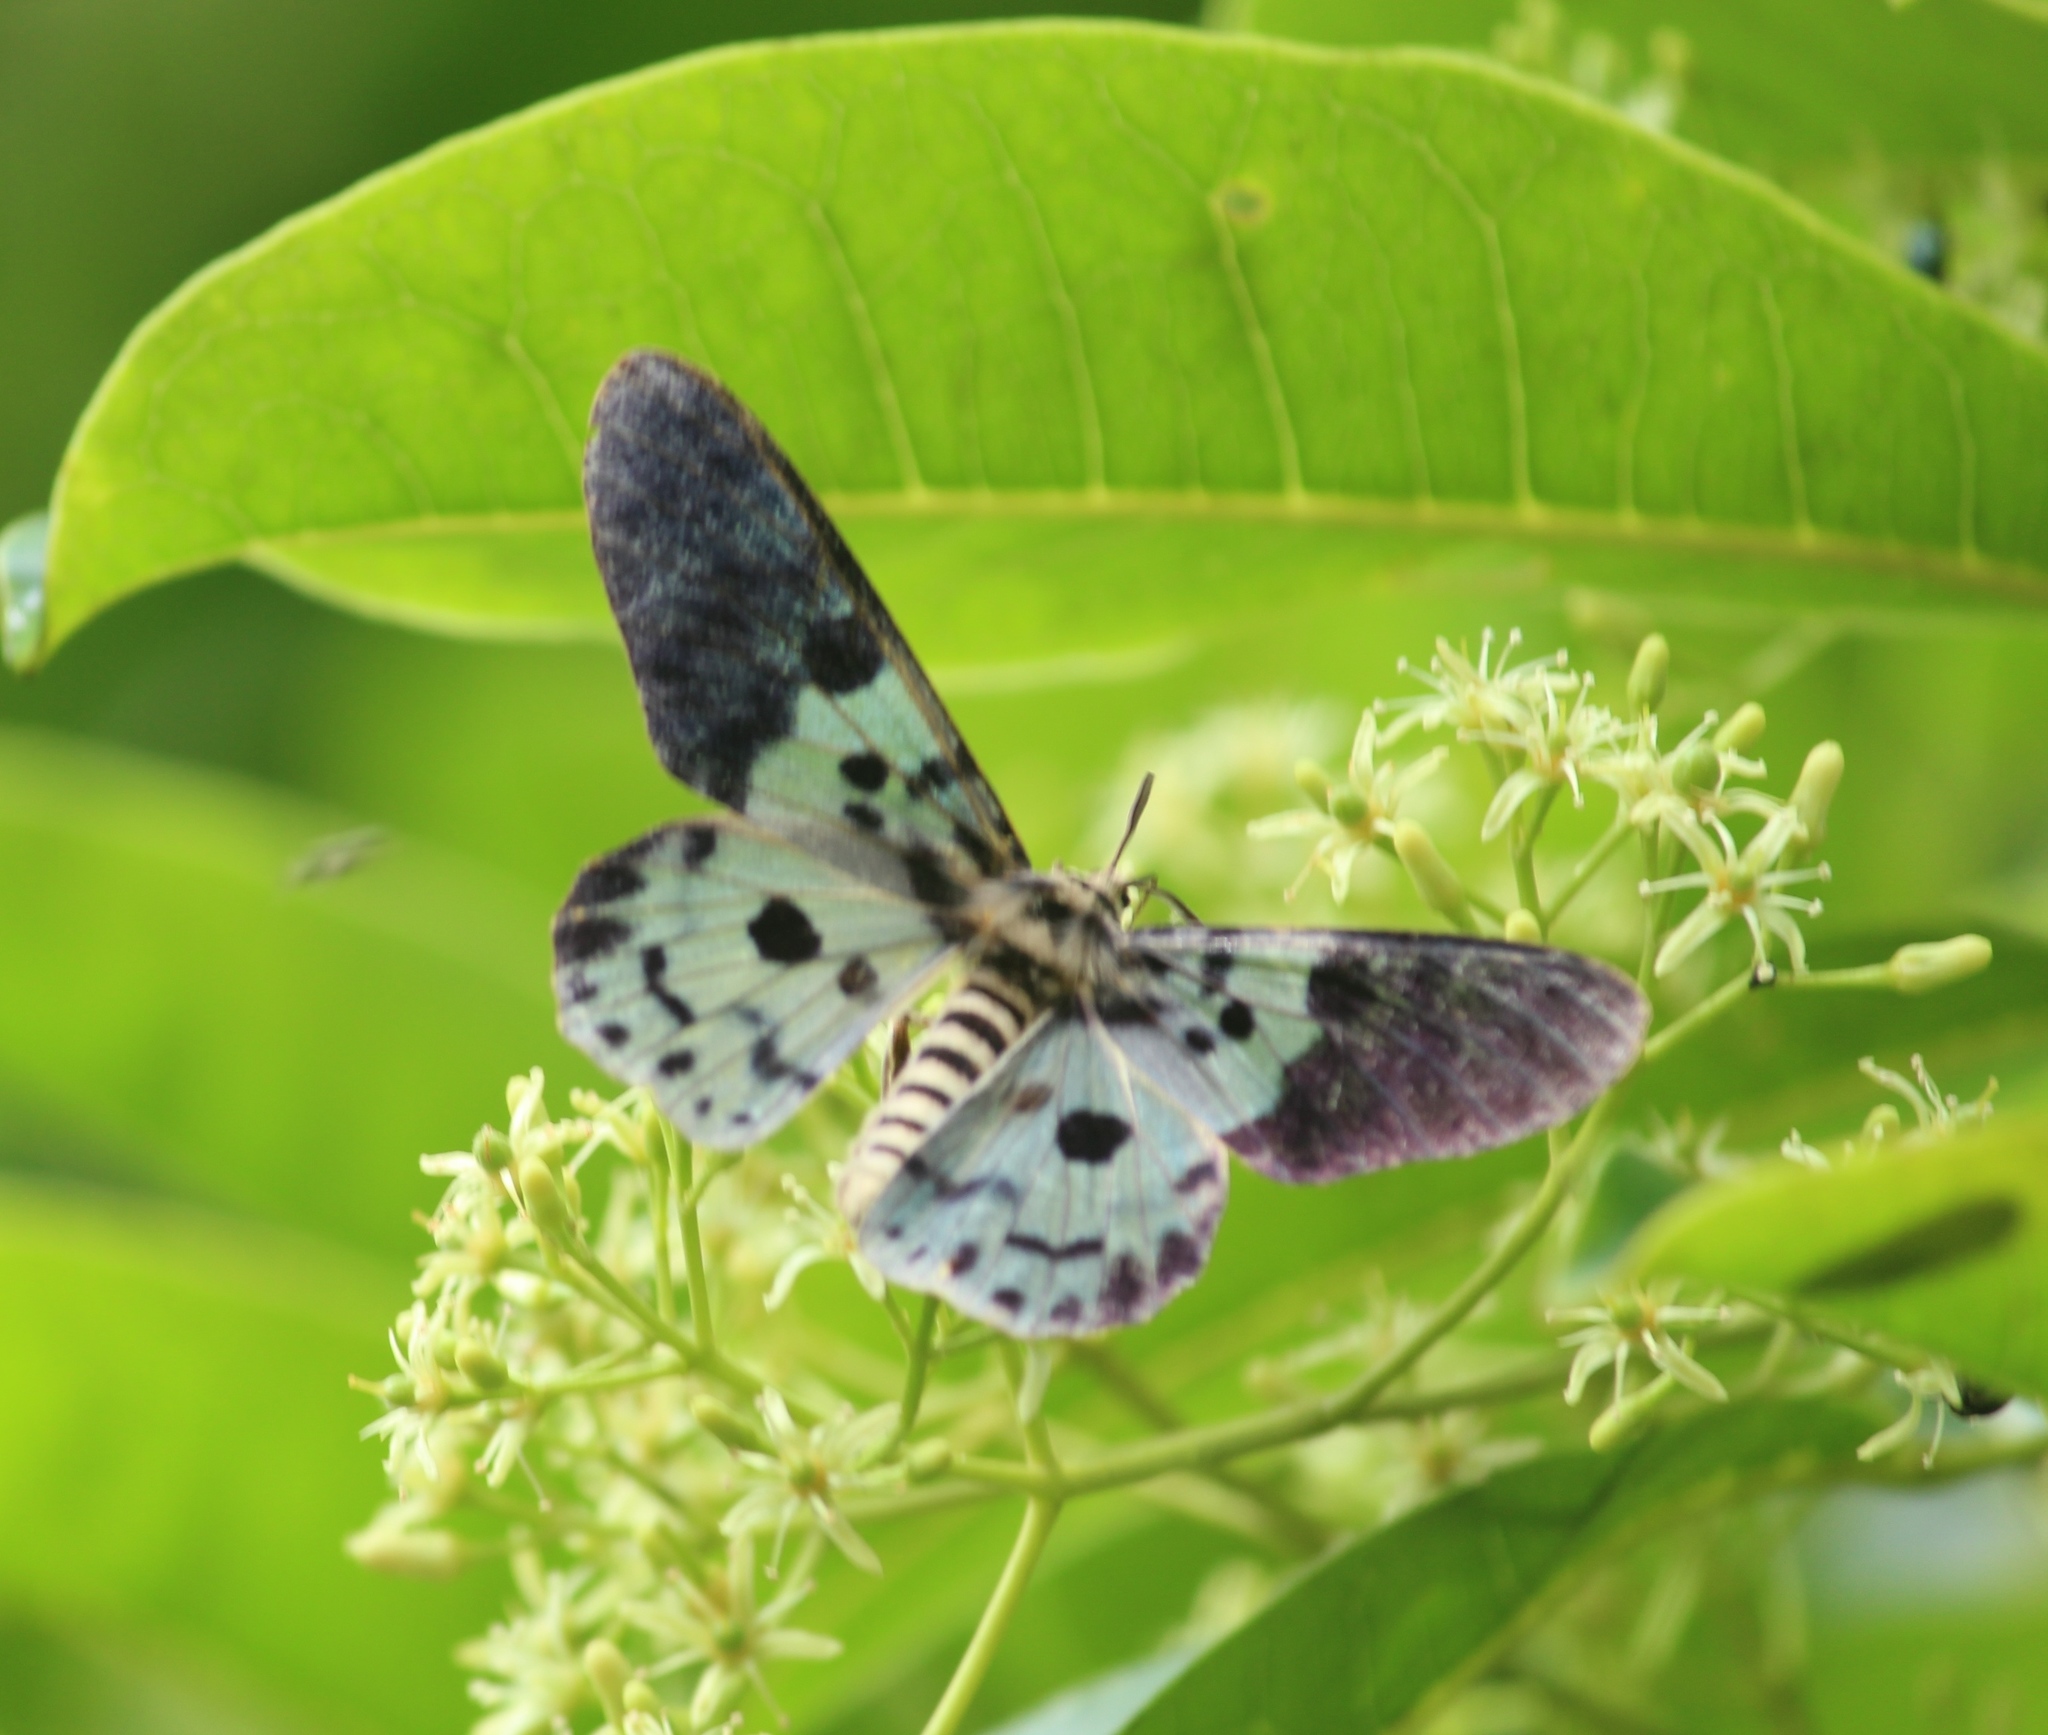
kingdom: Animalia
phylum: Arthropoda
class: Insecta
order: Lepidoptera
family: Geometridae
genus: Dysphania
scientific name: Dysphania percota
